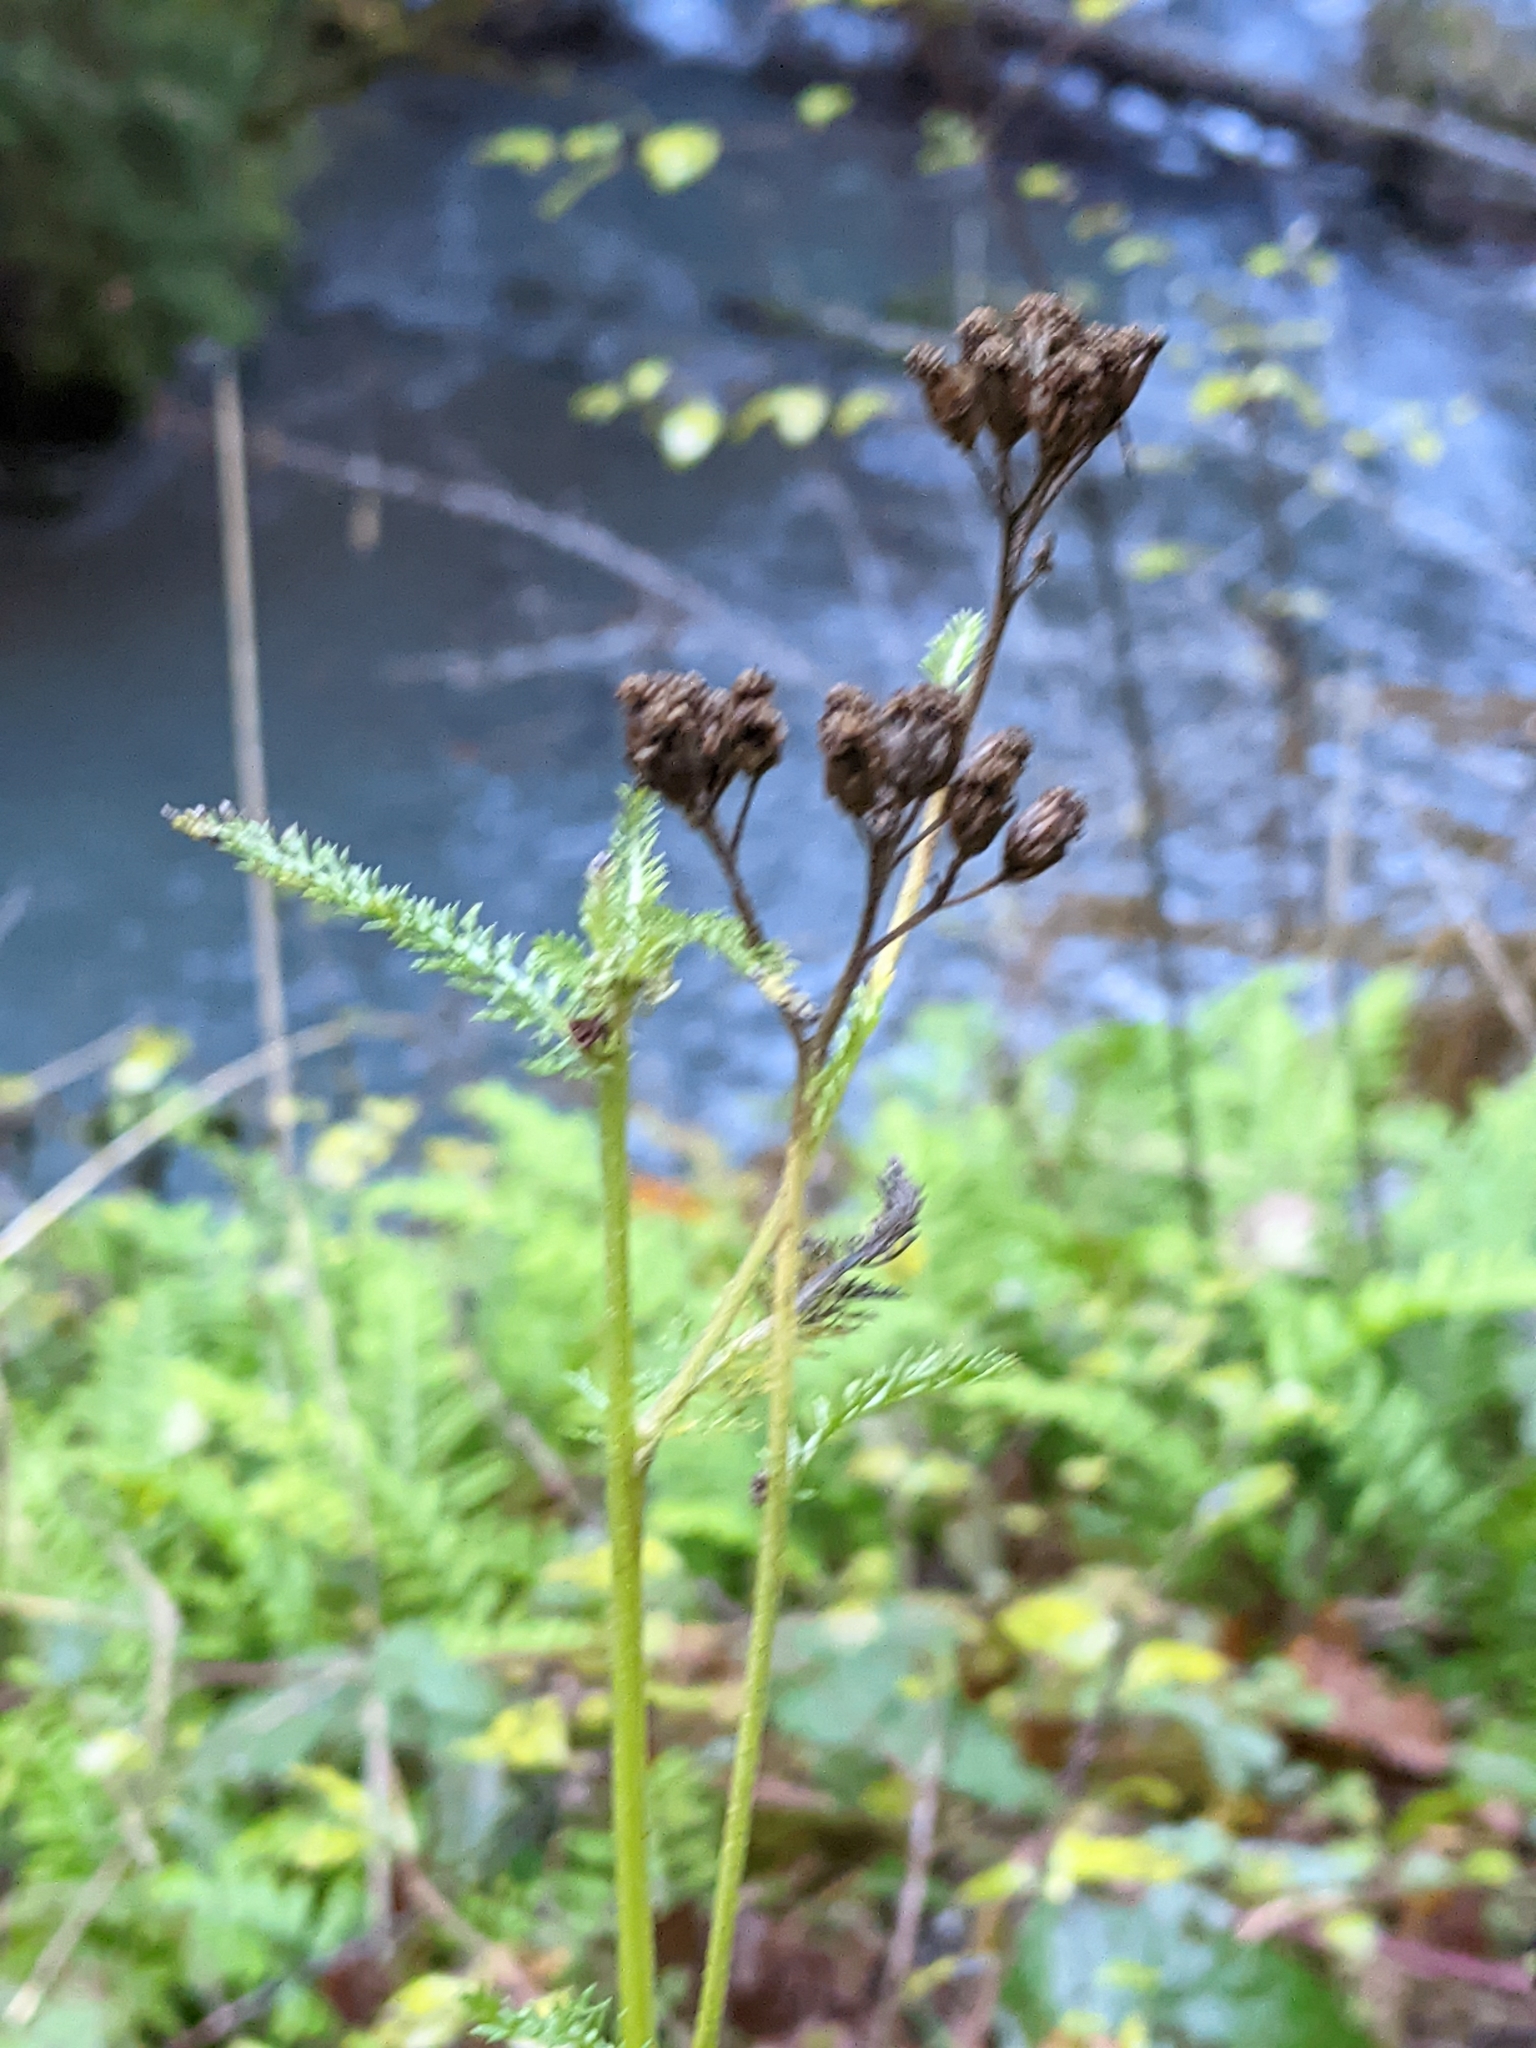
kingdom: Plantae
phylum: Tracheophyta
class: Magnoliopsida
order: Asterales
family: Asteraceae
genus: Achillea
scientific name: Achillea millefolium
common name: Yarrow
